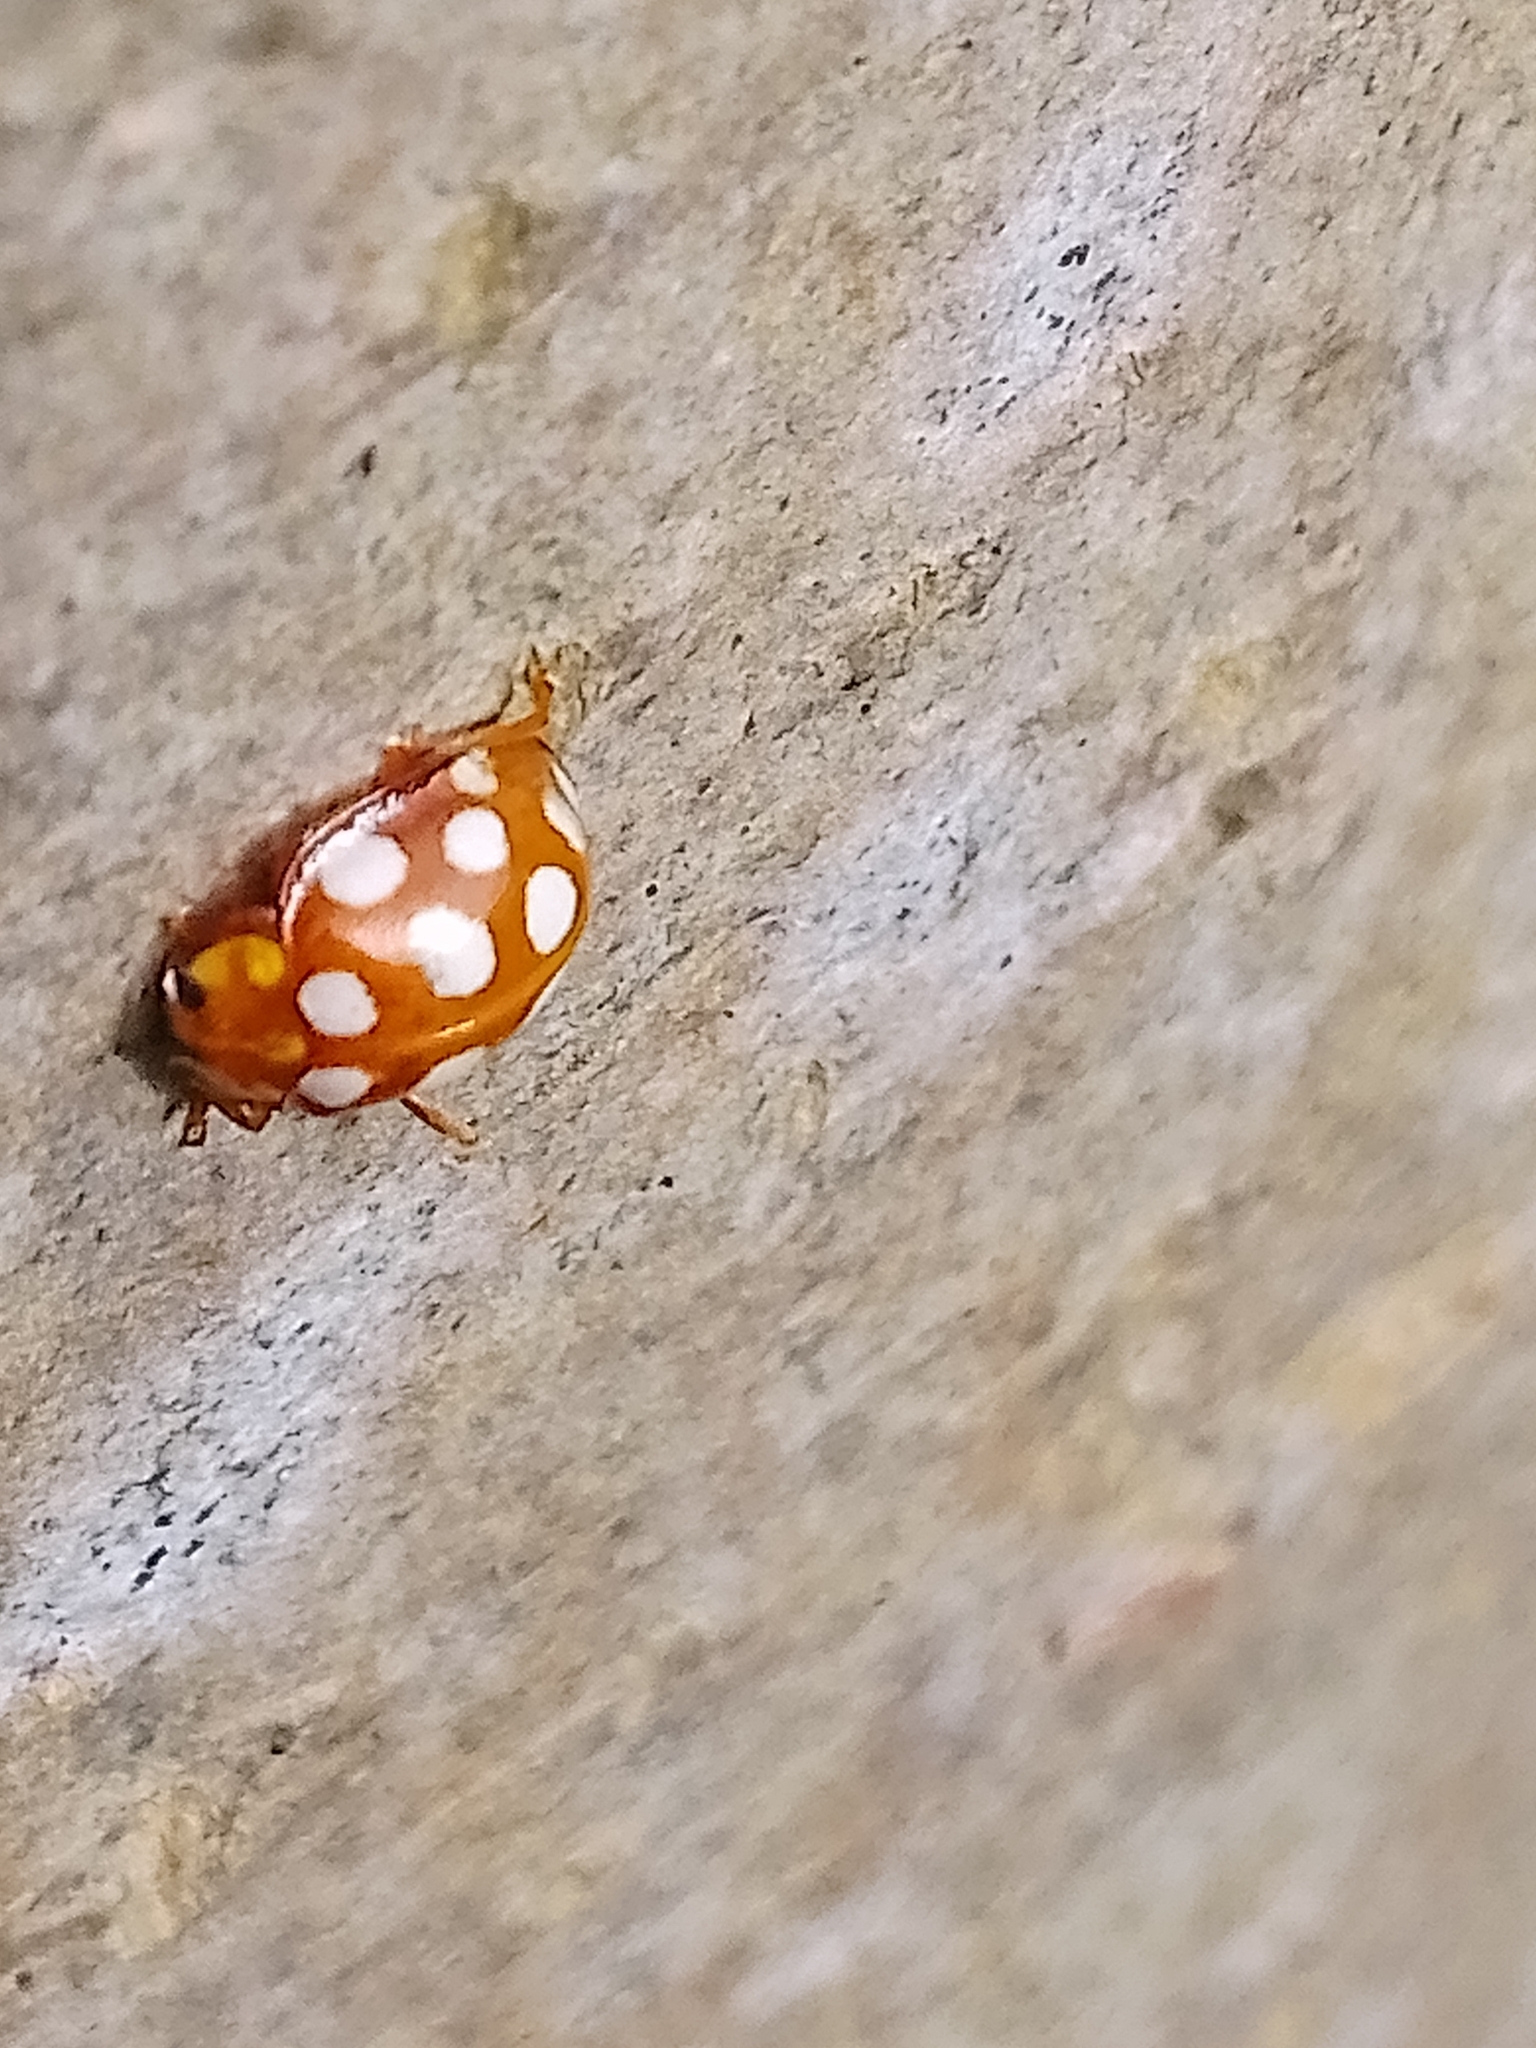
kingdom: Animalia
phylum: Arthropoda
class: Insecta
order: Coleoptera
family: Coccinellidae
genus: Halyzia
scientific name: Halyzia sedecimguttata
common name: Orange ladybird
